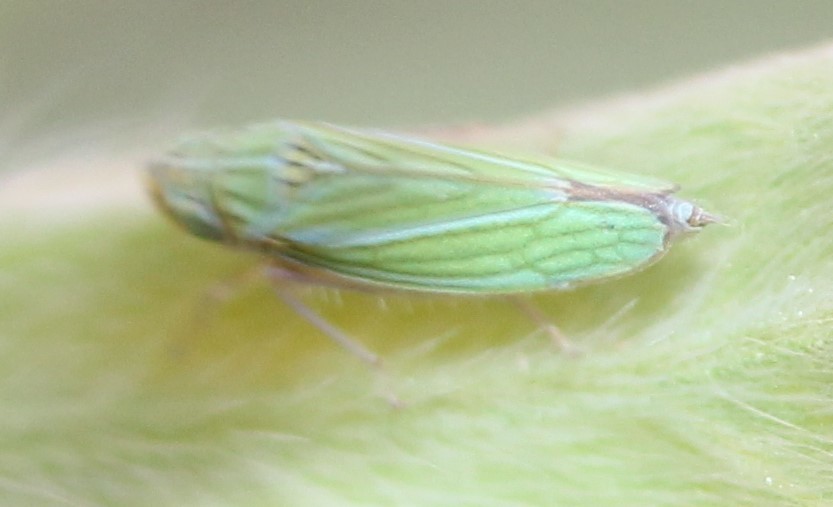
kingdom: Animalia
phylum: Arthropoda
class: Insecta
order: Hemiptera
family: Cicadellidae
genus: Graphocephala
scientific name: Graphocephala cythura
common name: Leafhopper
